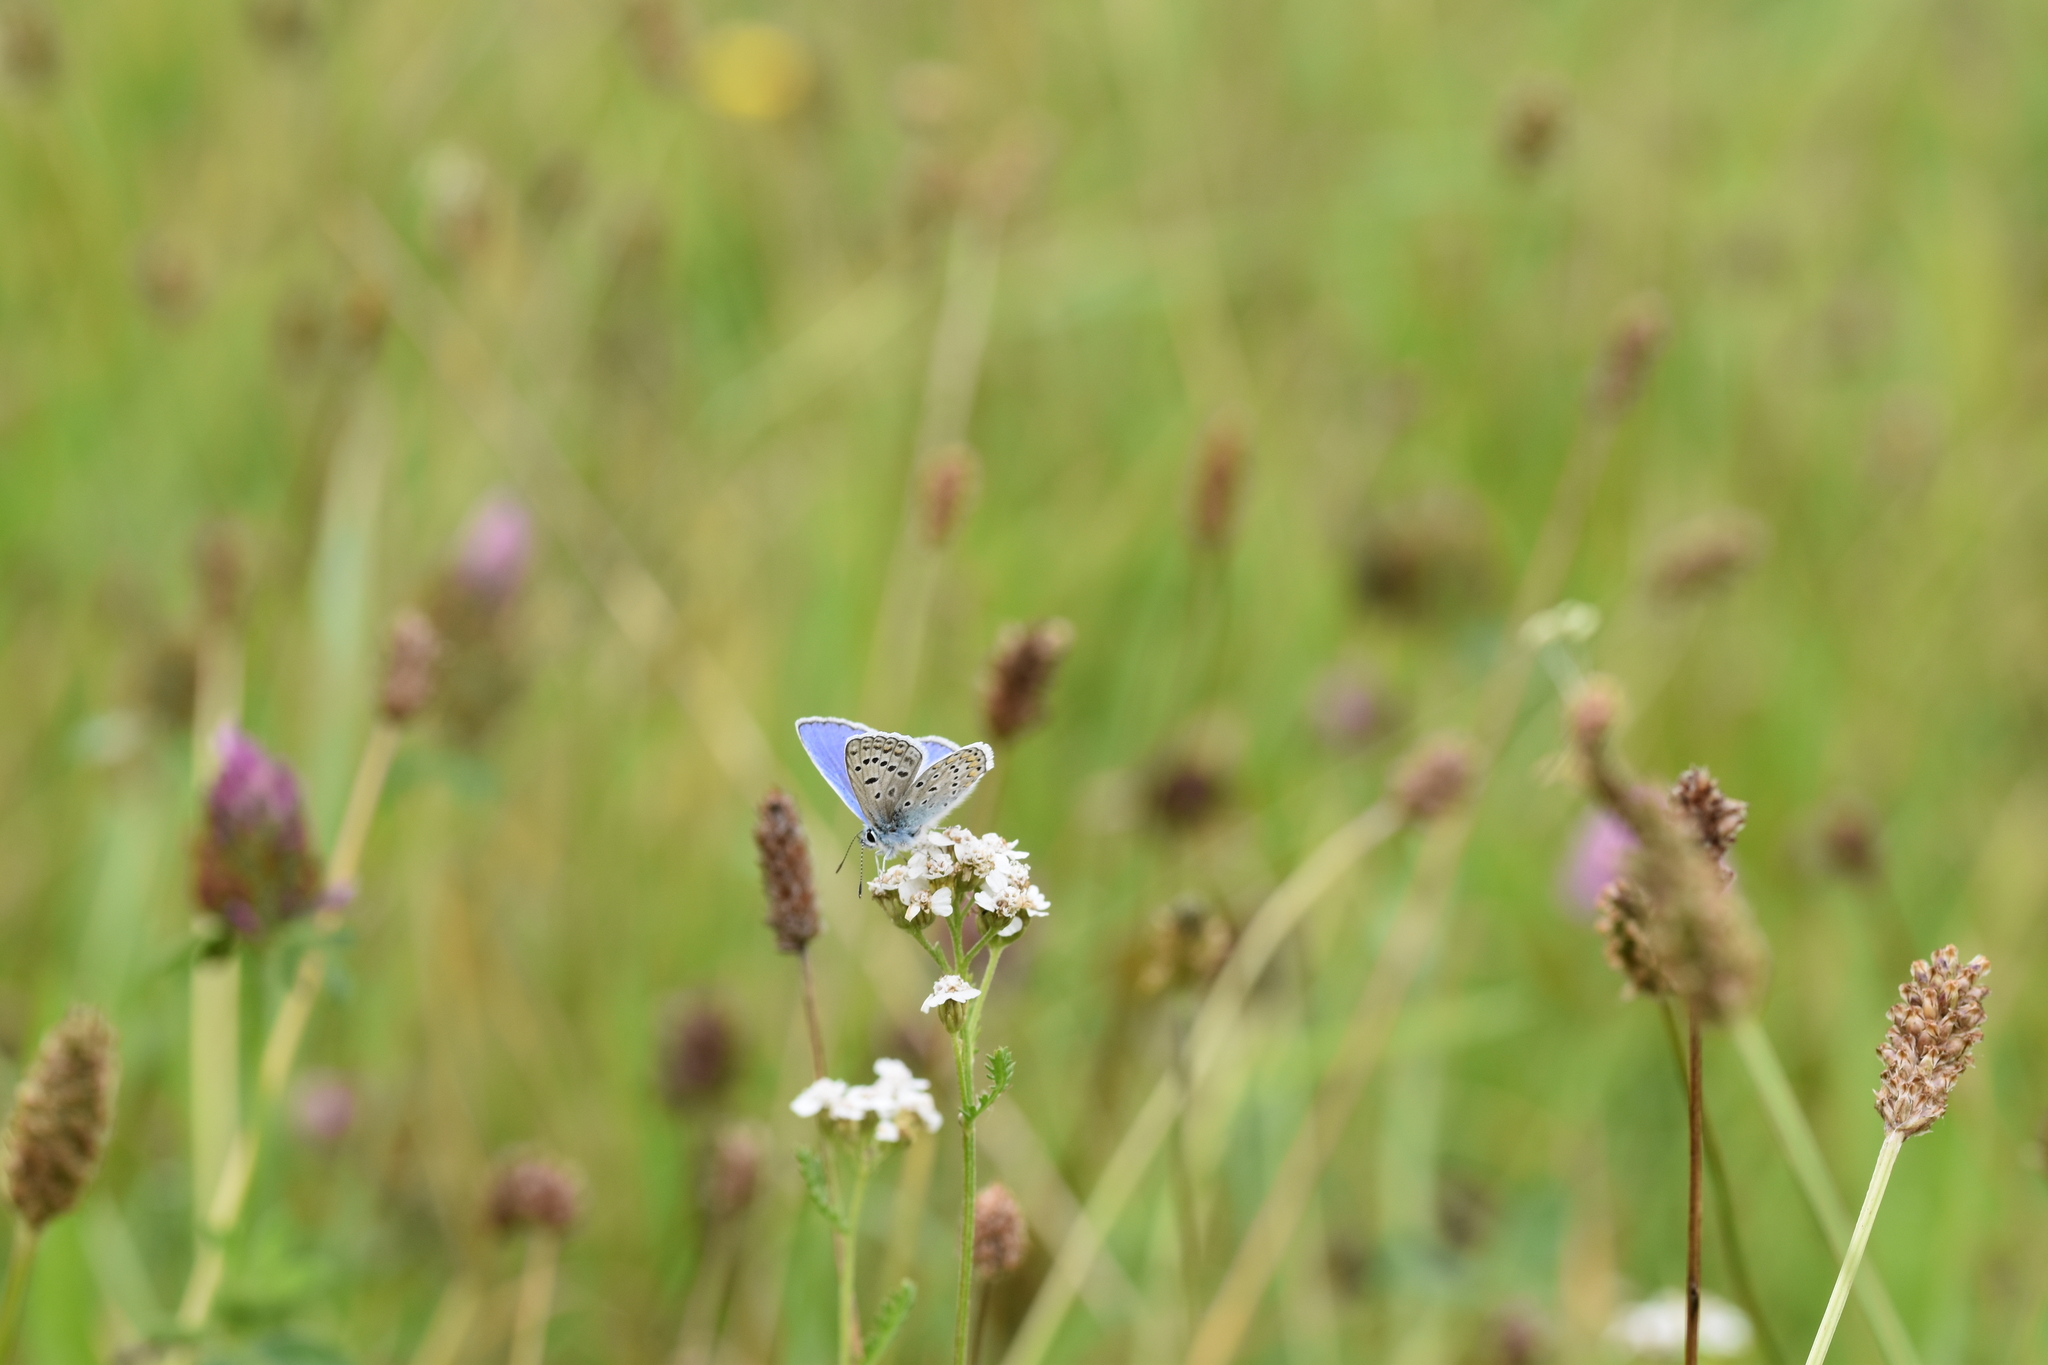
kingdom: Animalia
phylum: Arthropoda
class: Insecta
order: Lepidoptera
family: Lycaenidae
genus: Polyommatus
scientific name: Polyommatus icarus
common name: Common blue
